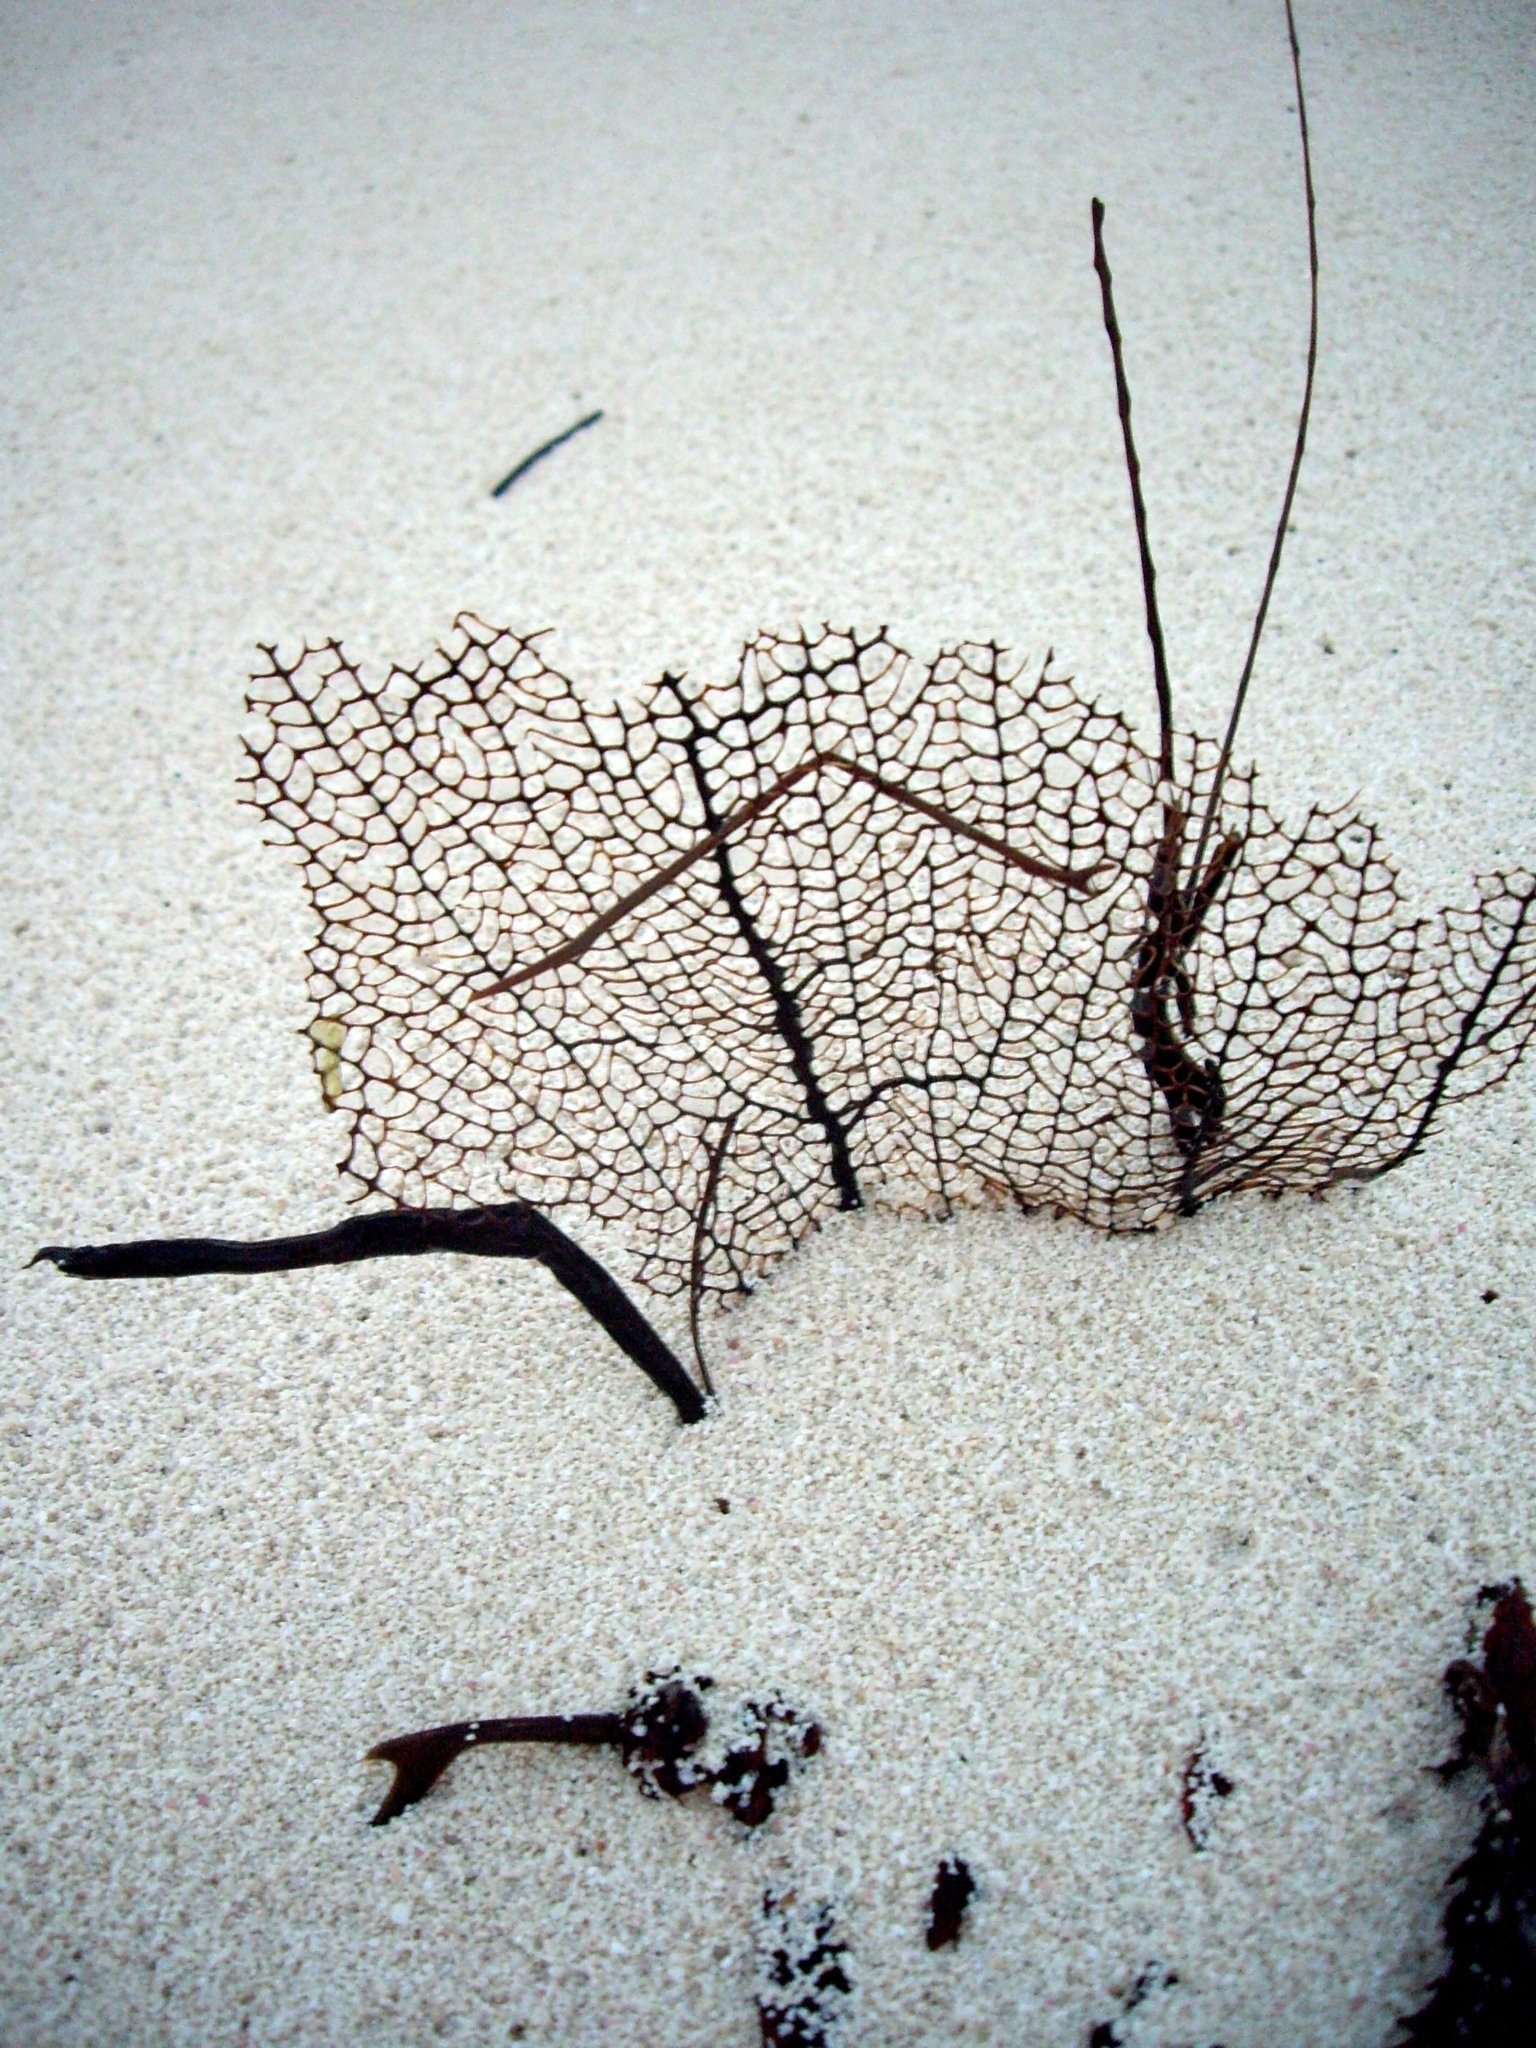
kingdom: Animalia
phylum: Cnidaria
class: Anthozoa
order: Malacalcyonacea
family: Gorgoniidae
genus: Gorgonia
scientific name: Gorgonia ventalina
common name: Common sea fan
